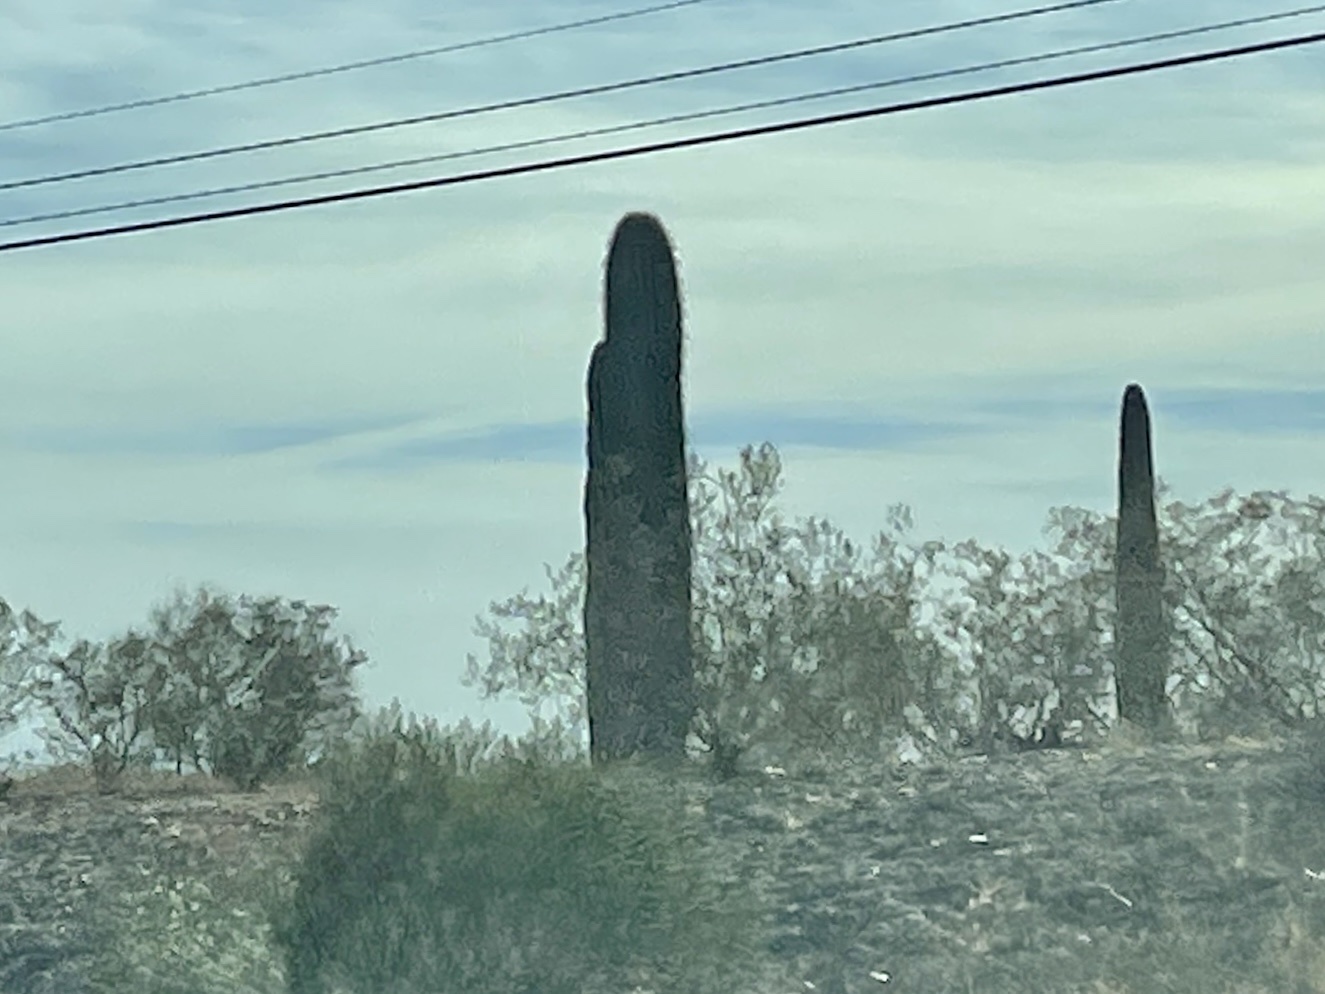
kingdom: Plantae
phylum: Tracheophyta
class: Magnoliopsida
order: Caryophyllales
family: Cactaceae
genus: Carnegiea
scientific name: Carnegiea gigantea
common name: Saguaro
